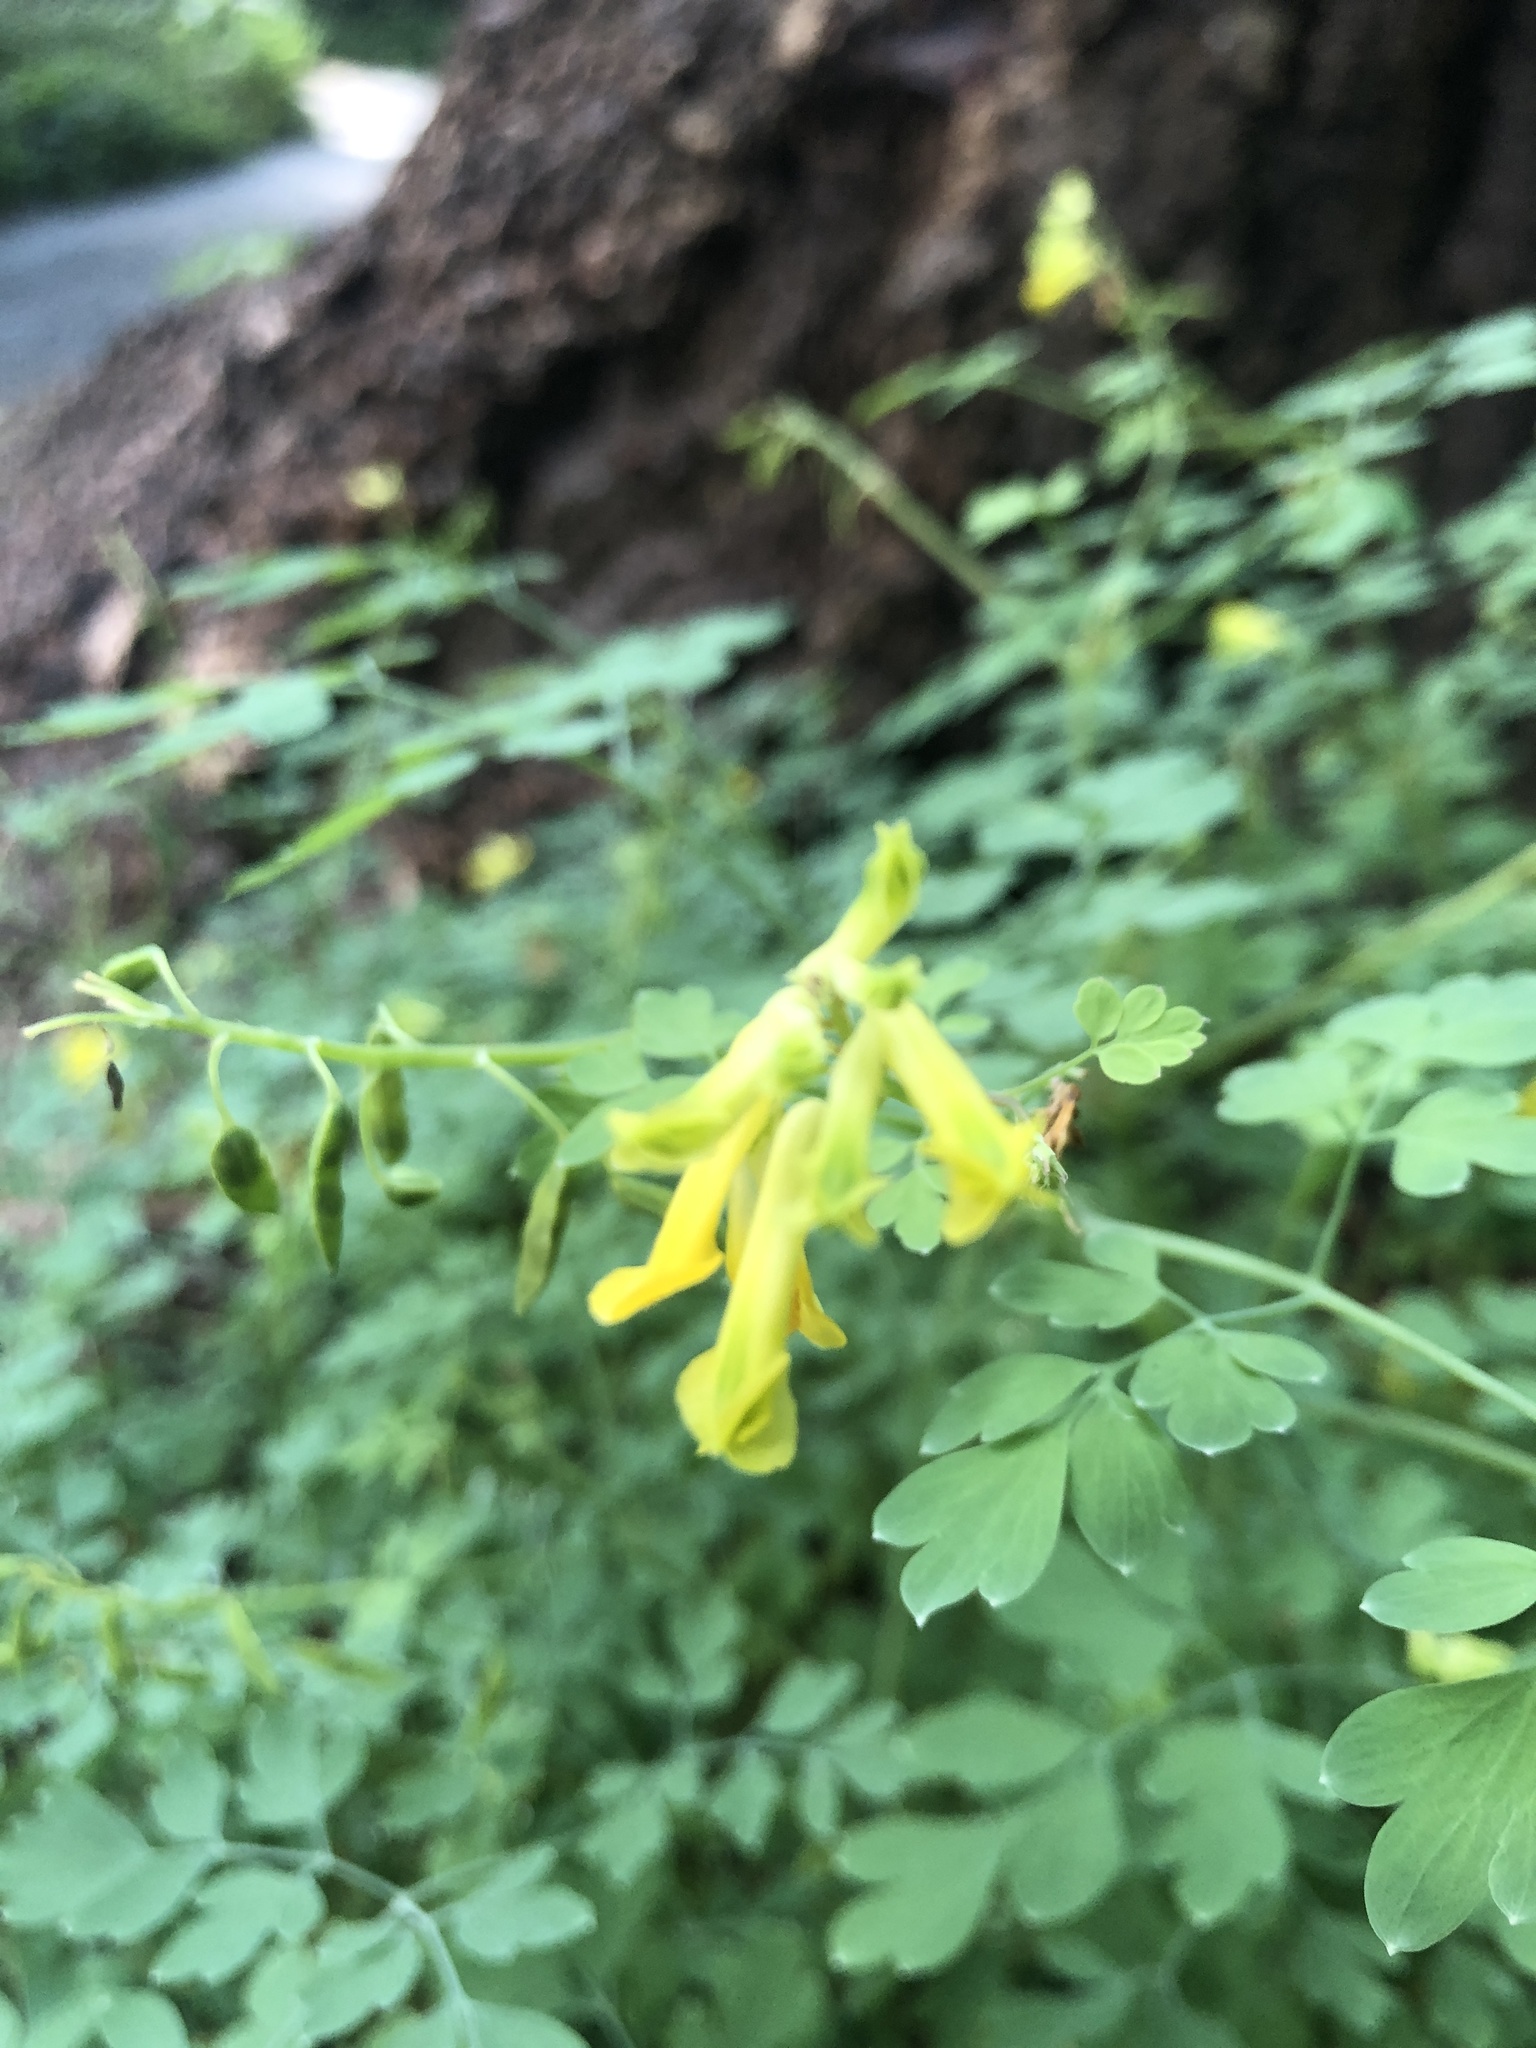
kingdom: Plantae
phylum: Tracheophyta
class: Magnoliopsida
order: Ranunculales
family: Papaveraceae
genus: Pseudofumaria
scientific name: Pseudofumaria lutea
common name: Yellow corydalis
